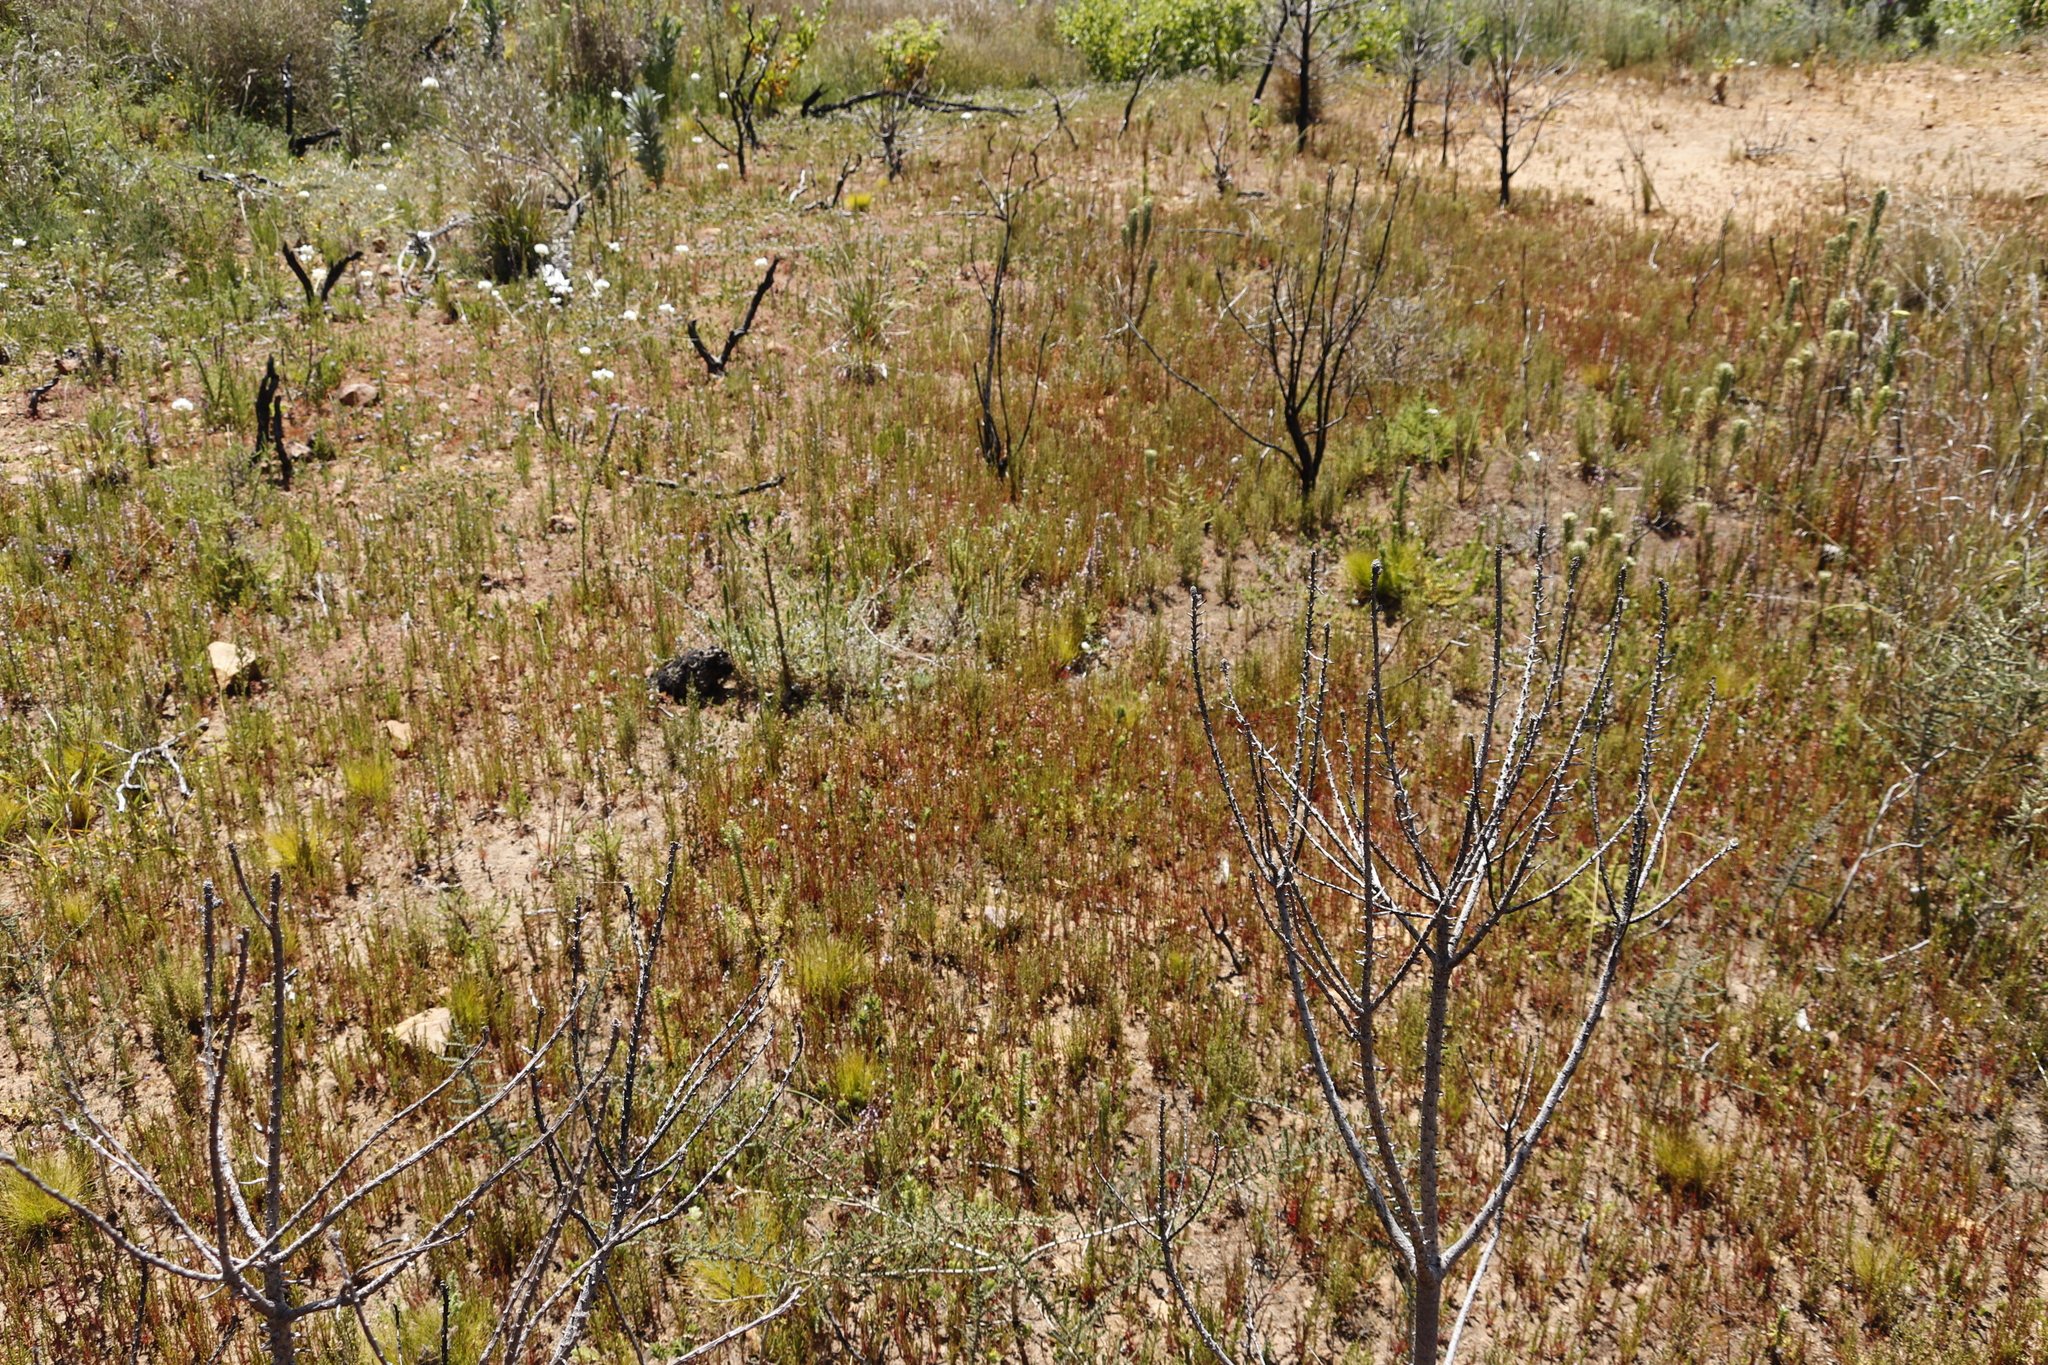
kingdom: Plantae
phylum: Tracheophyta
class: Magnoliopsida
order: Ericales
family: Ericaceae
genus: Erica
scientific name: Erica mauritanica
